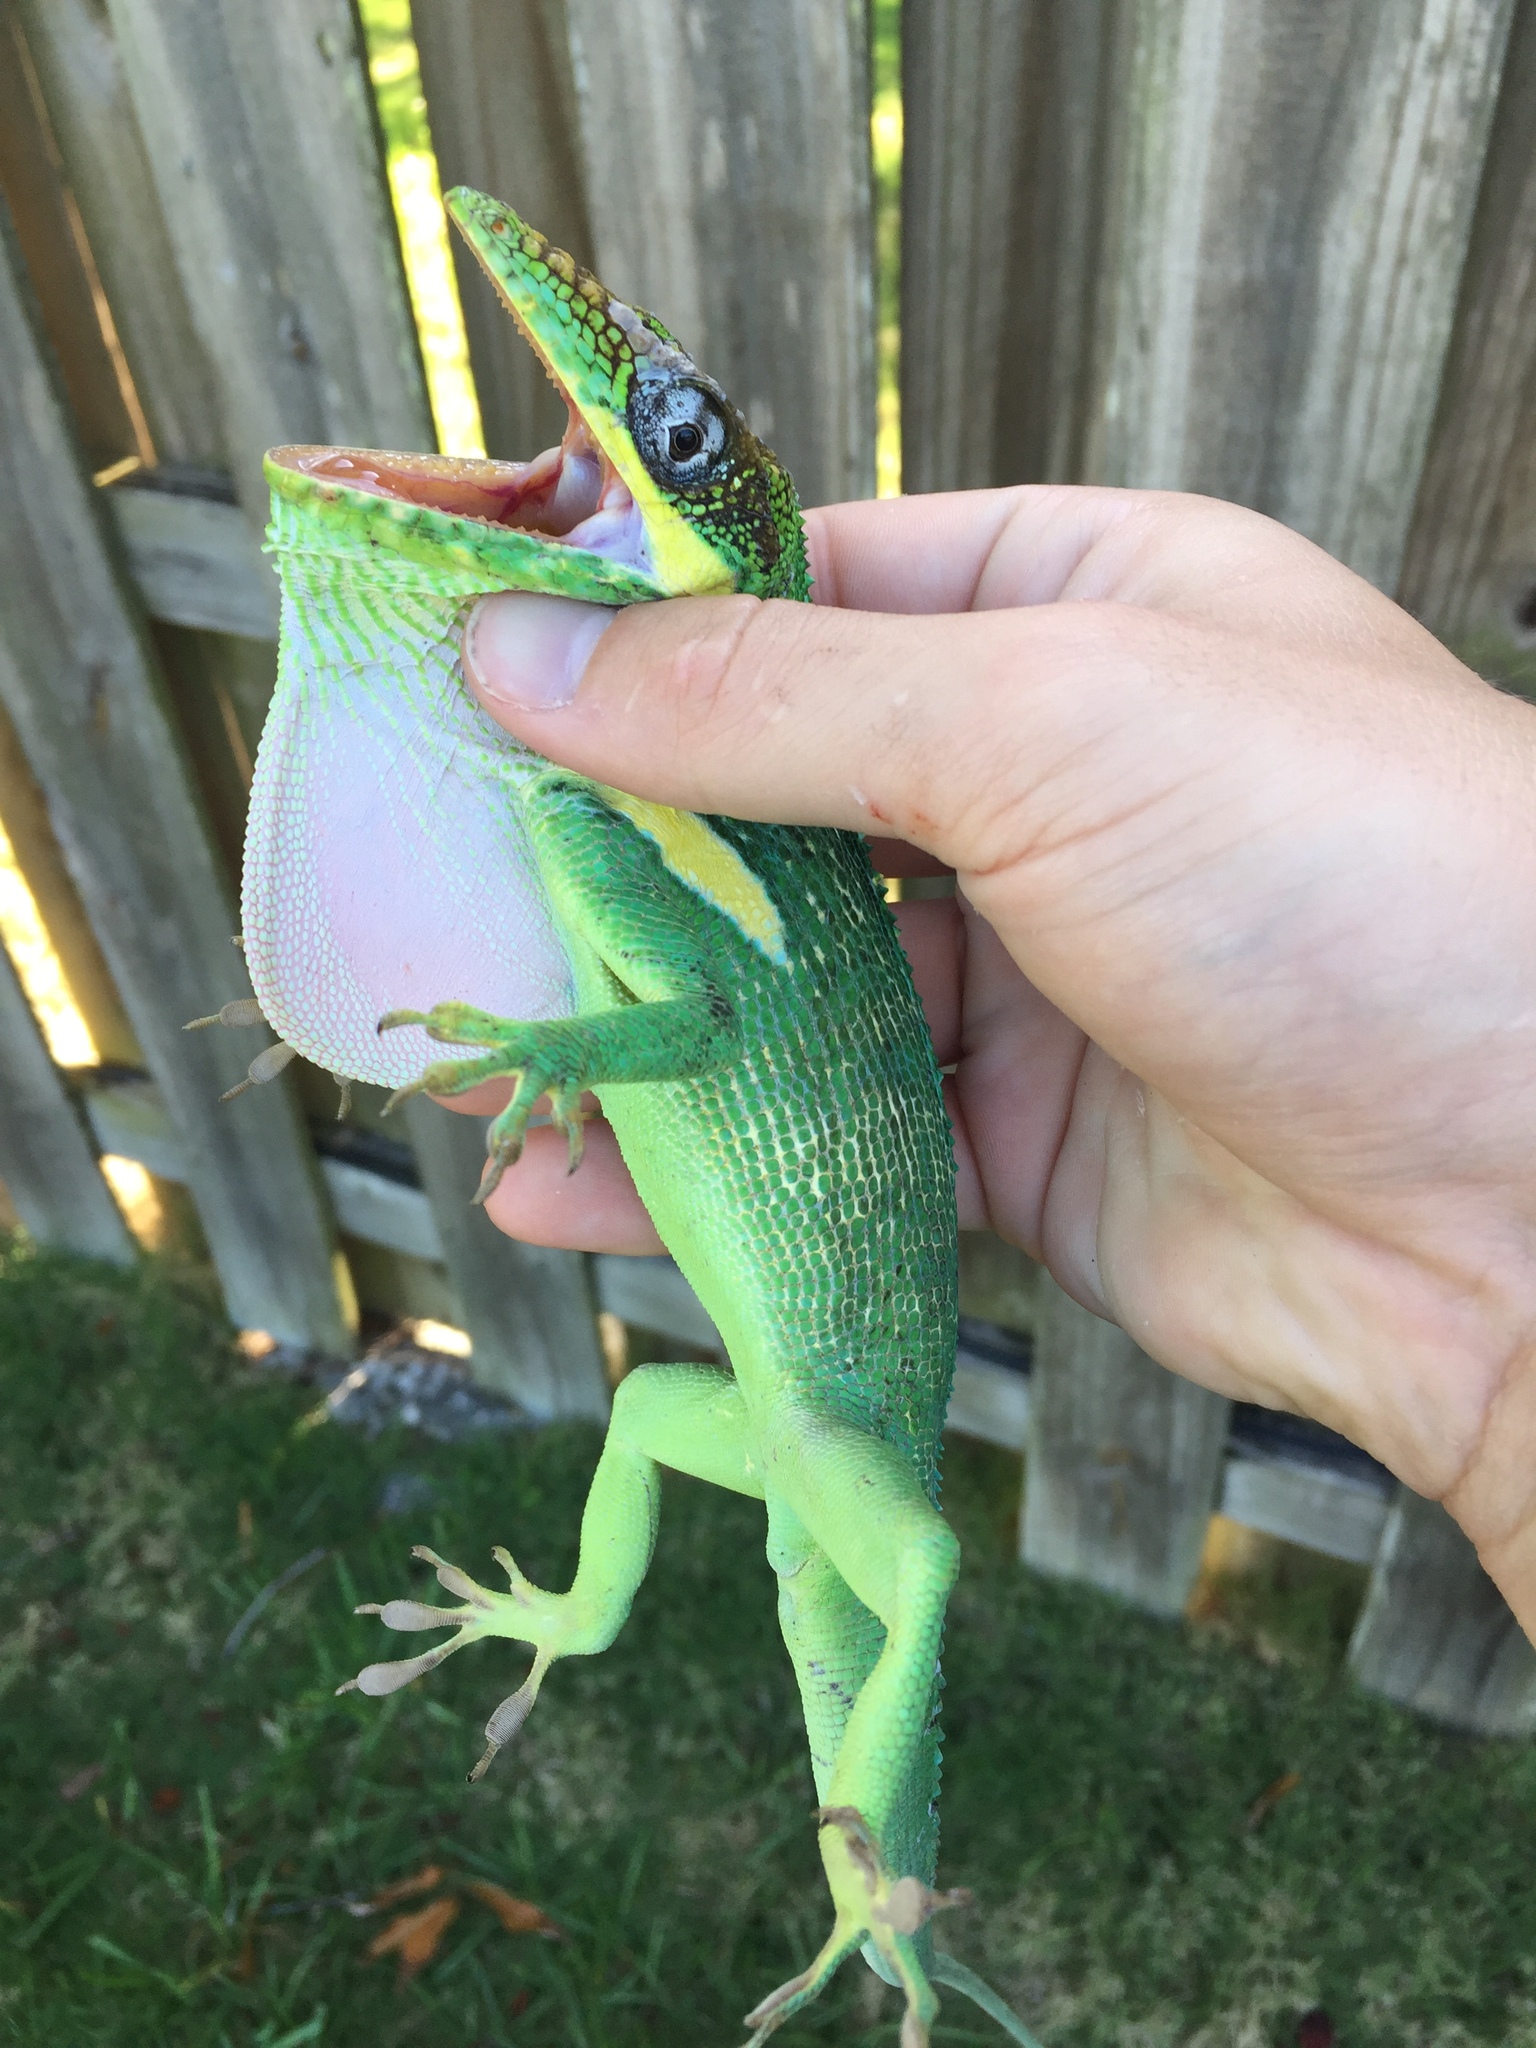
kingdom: Animalia
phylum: Chordata
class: Squamata
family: Dactyloidae
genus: Anolis
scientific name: Anolis equestris
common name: Knight anole
